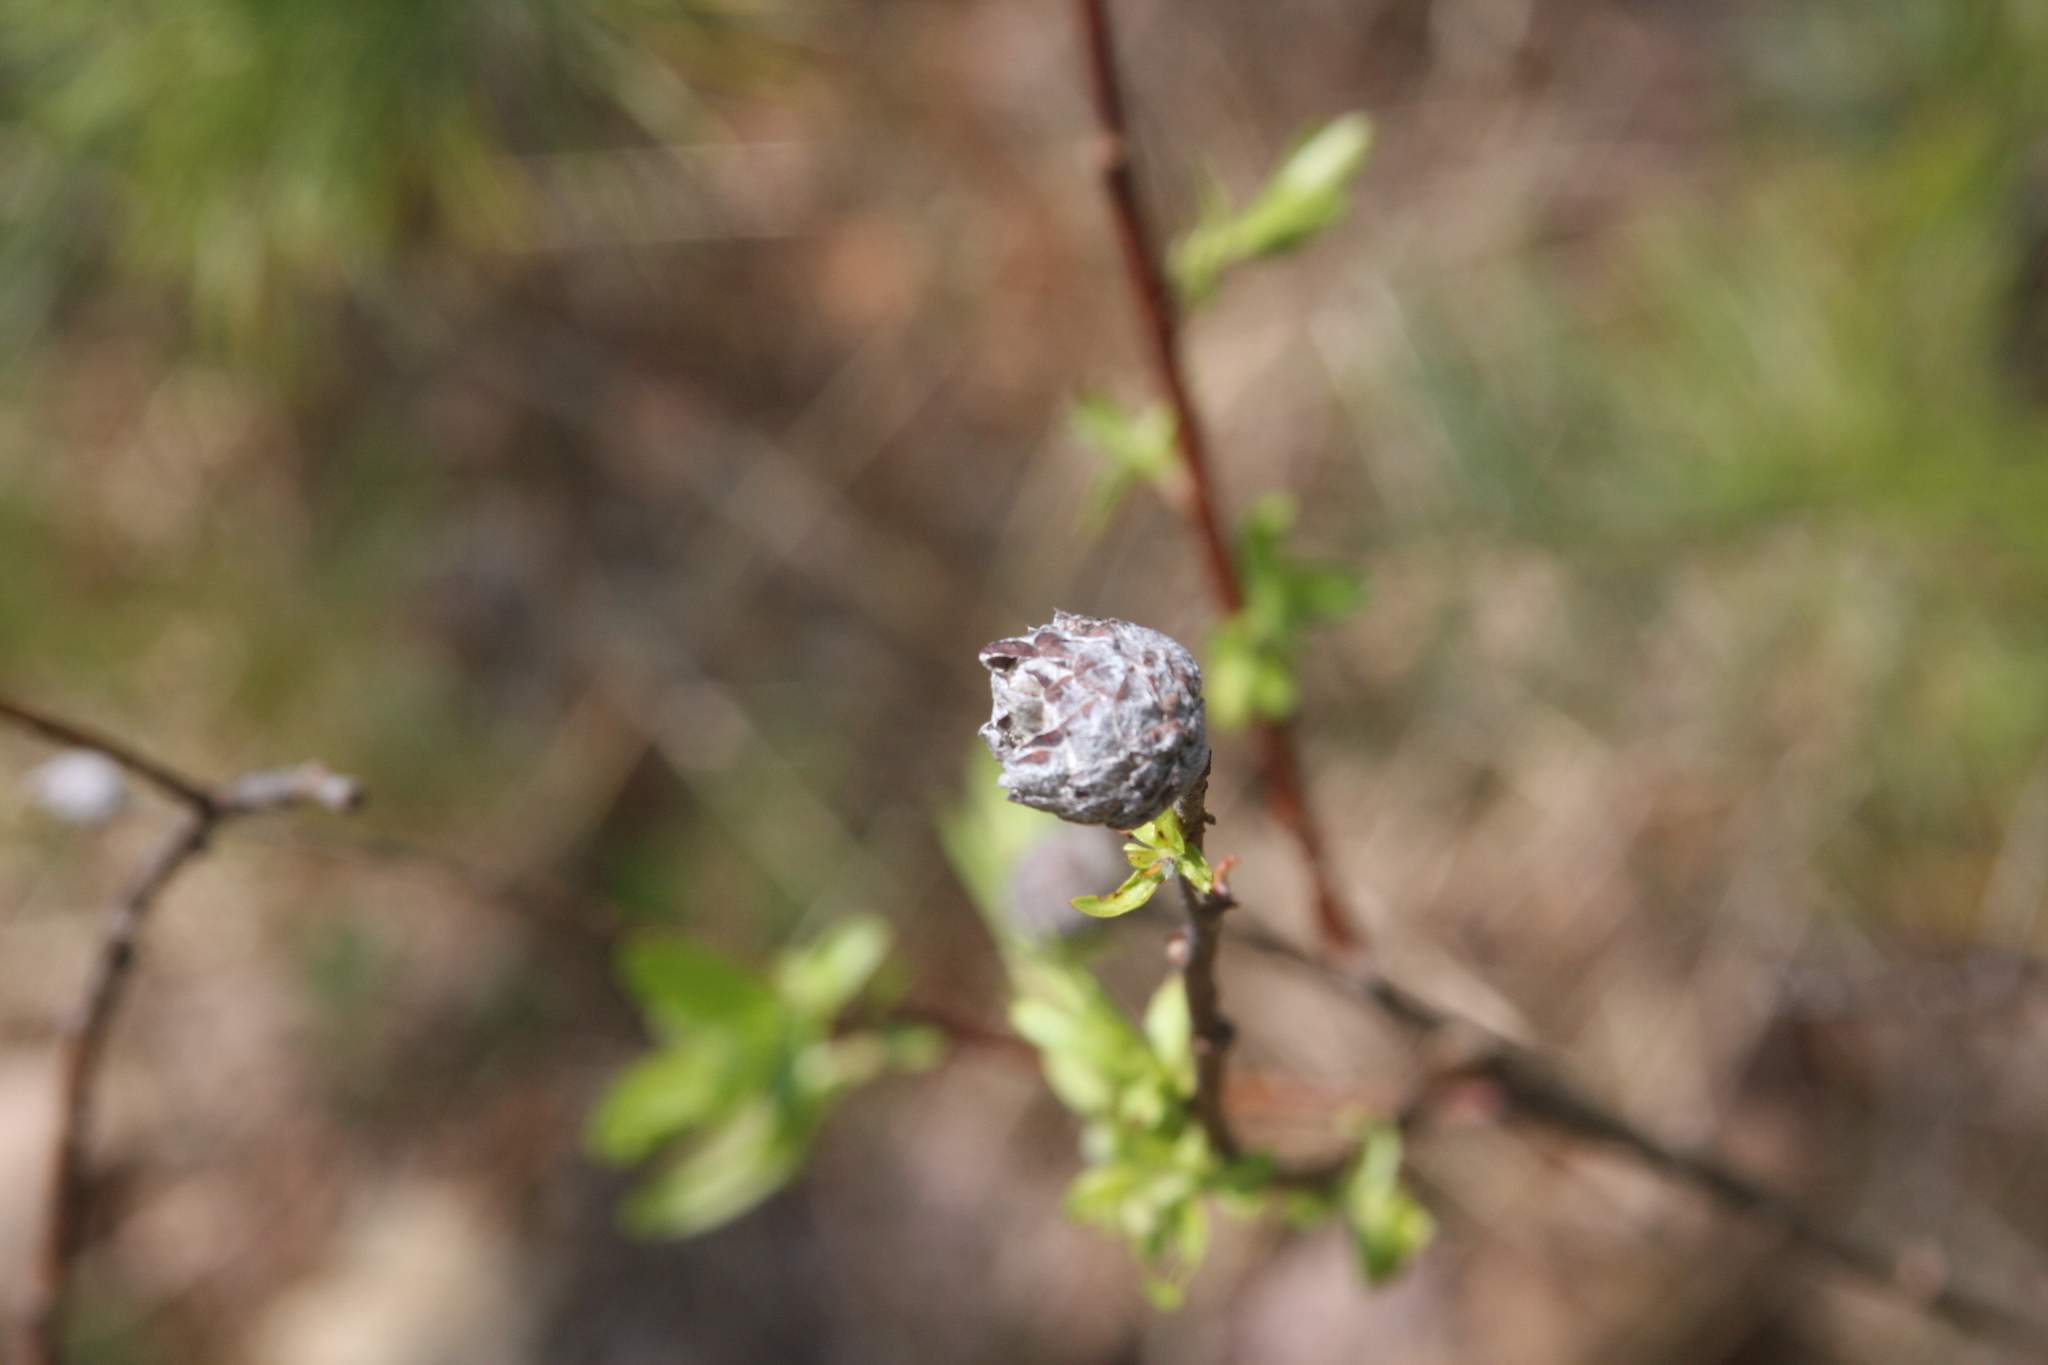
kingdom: Animalia
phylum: Arthropoda
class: Insecta
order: Diptera
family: Cecidomyiidae
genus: Rabdophaga
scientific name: Rabdophaga strobiloides
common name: Willow pinecone gall midge
